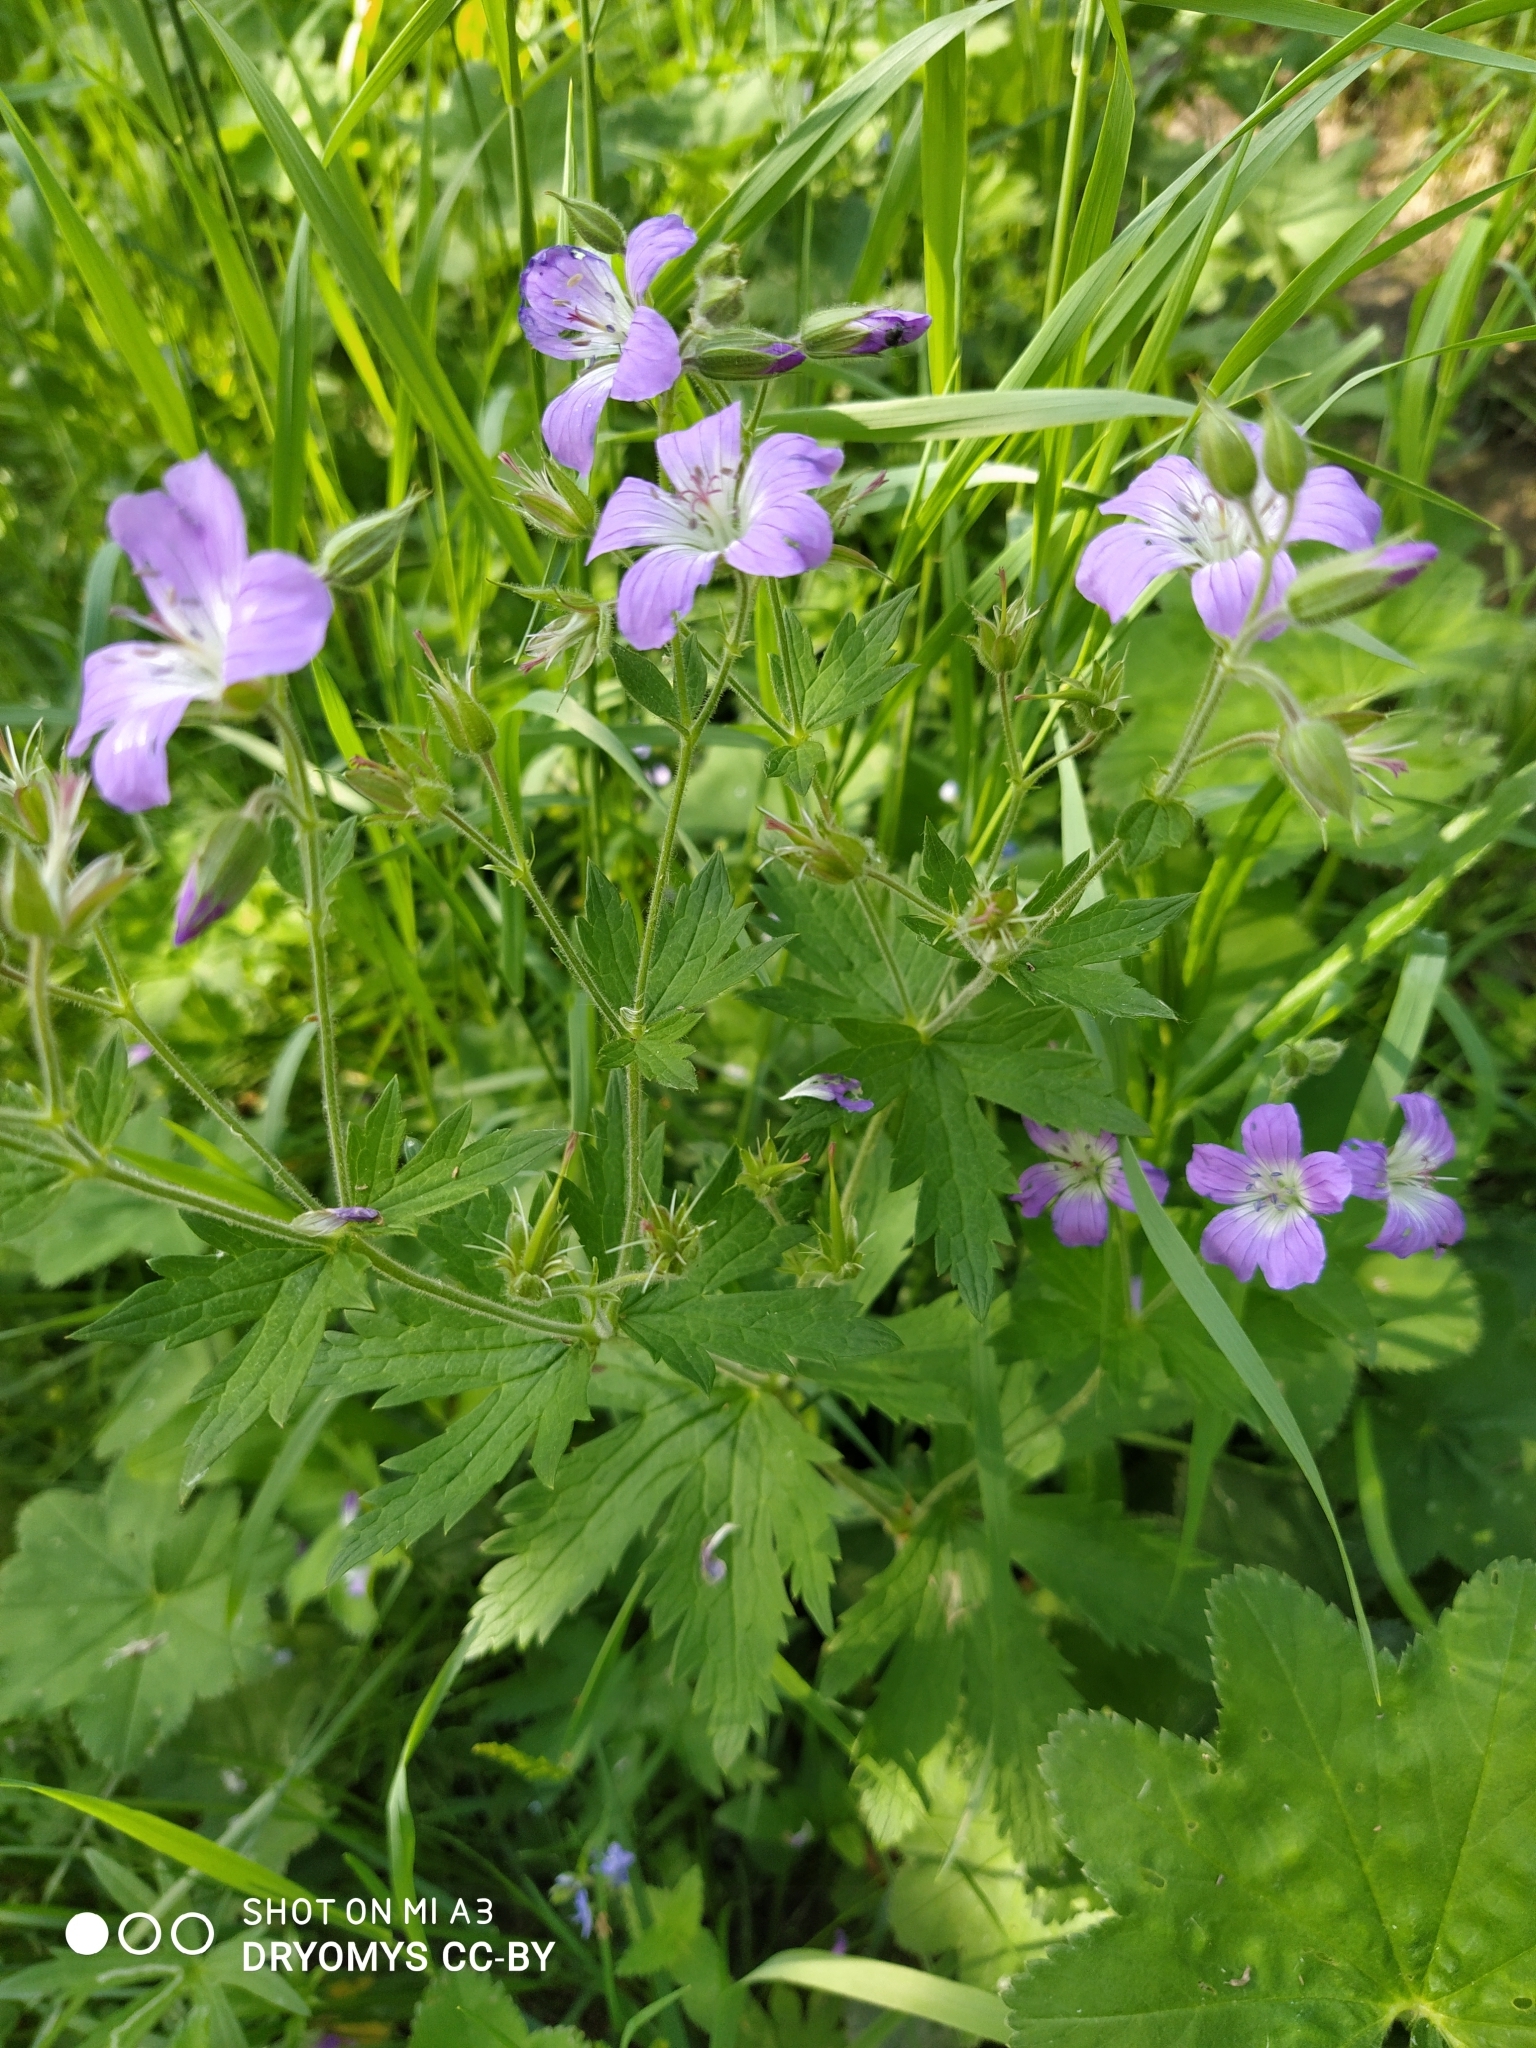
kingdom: Plantae
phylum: Tracheophyta
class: Magnoliopsida
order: Geraniales
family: Geraniaceae
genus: Geranium
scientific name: Geranium sylvaticum
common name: Wood crane's-bill
